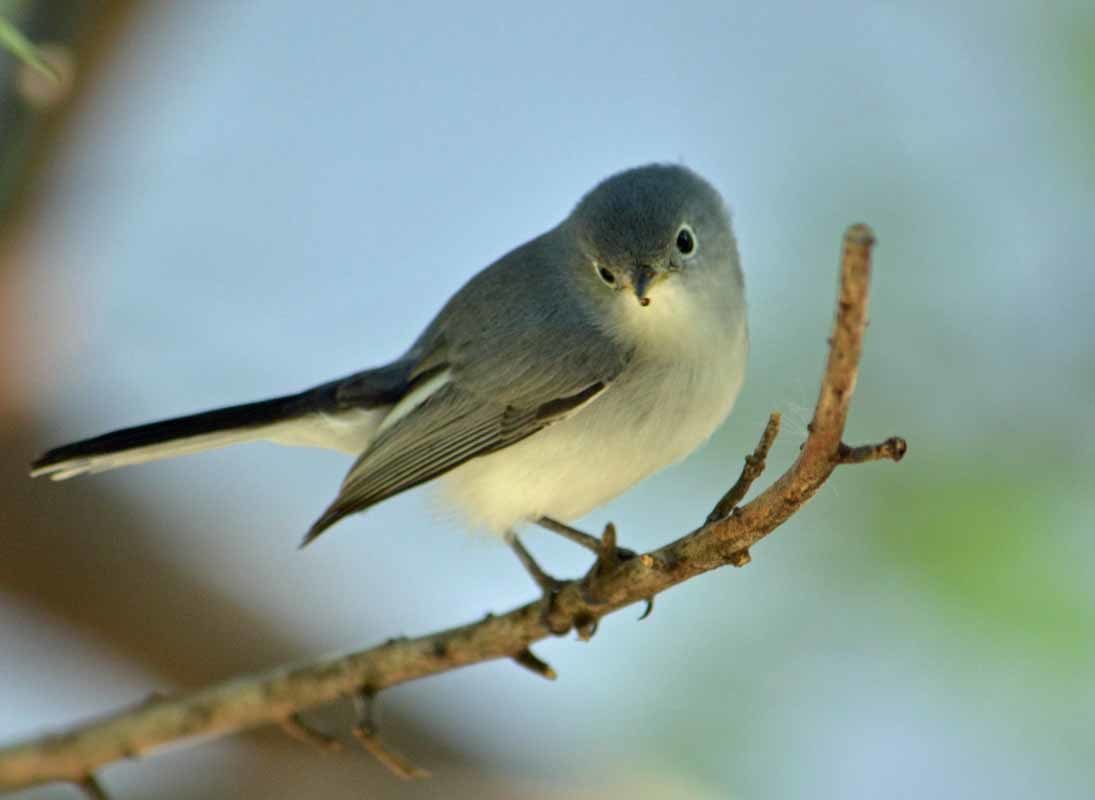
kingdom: Animalia
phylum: Chordata
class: Aves
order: Passeriformes
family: Polioptilidae
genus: Polioptila
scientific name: Polioptila caerulea
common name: Blue-gray gnatcatcher
